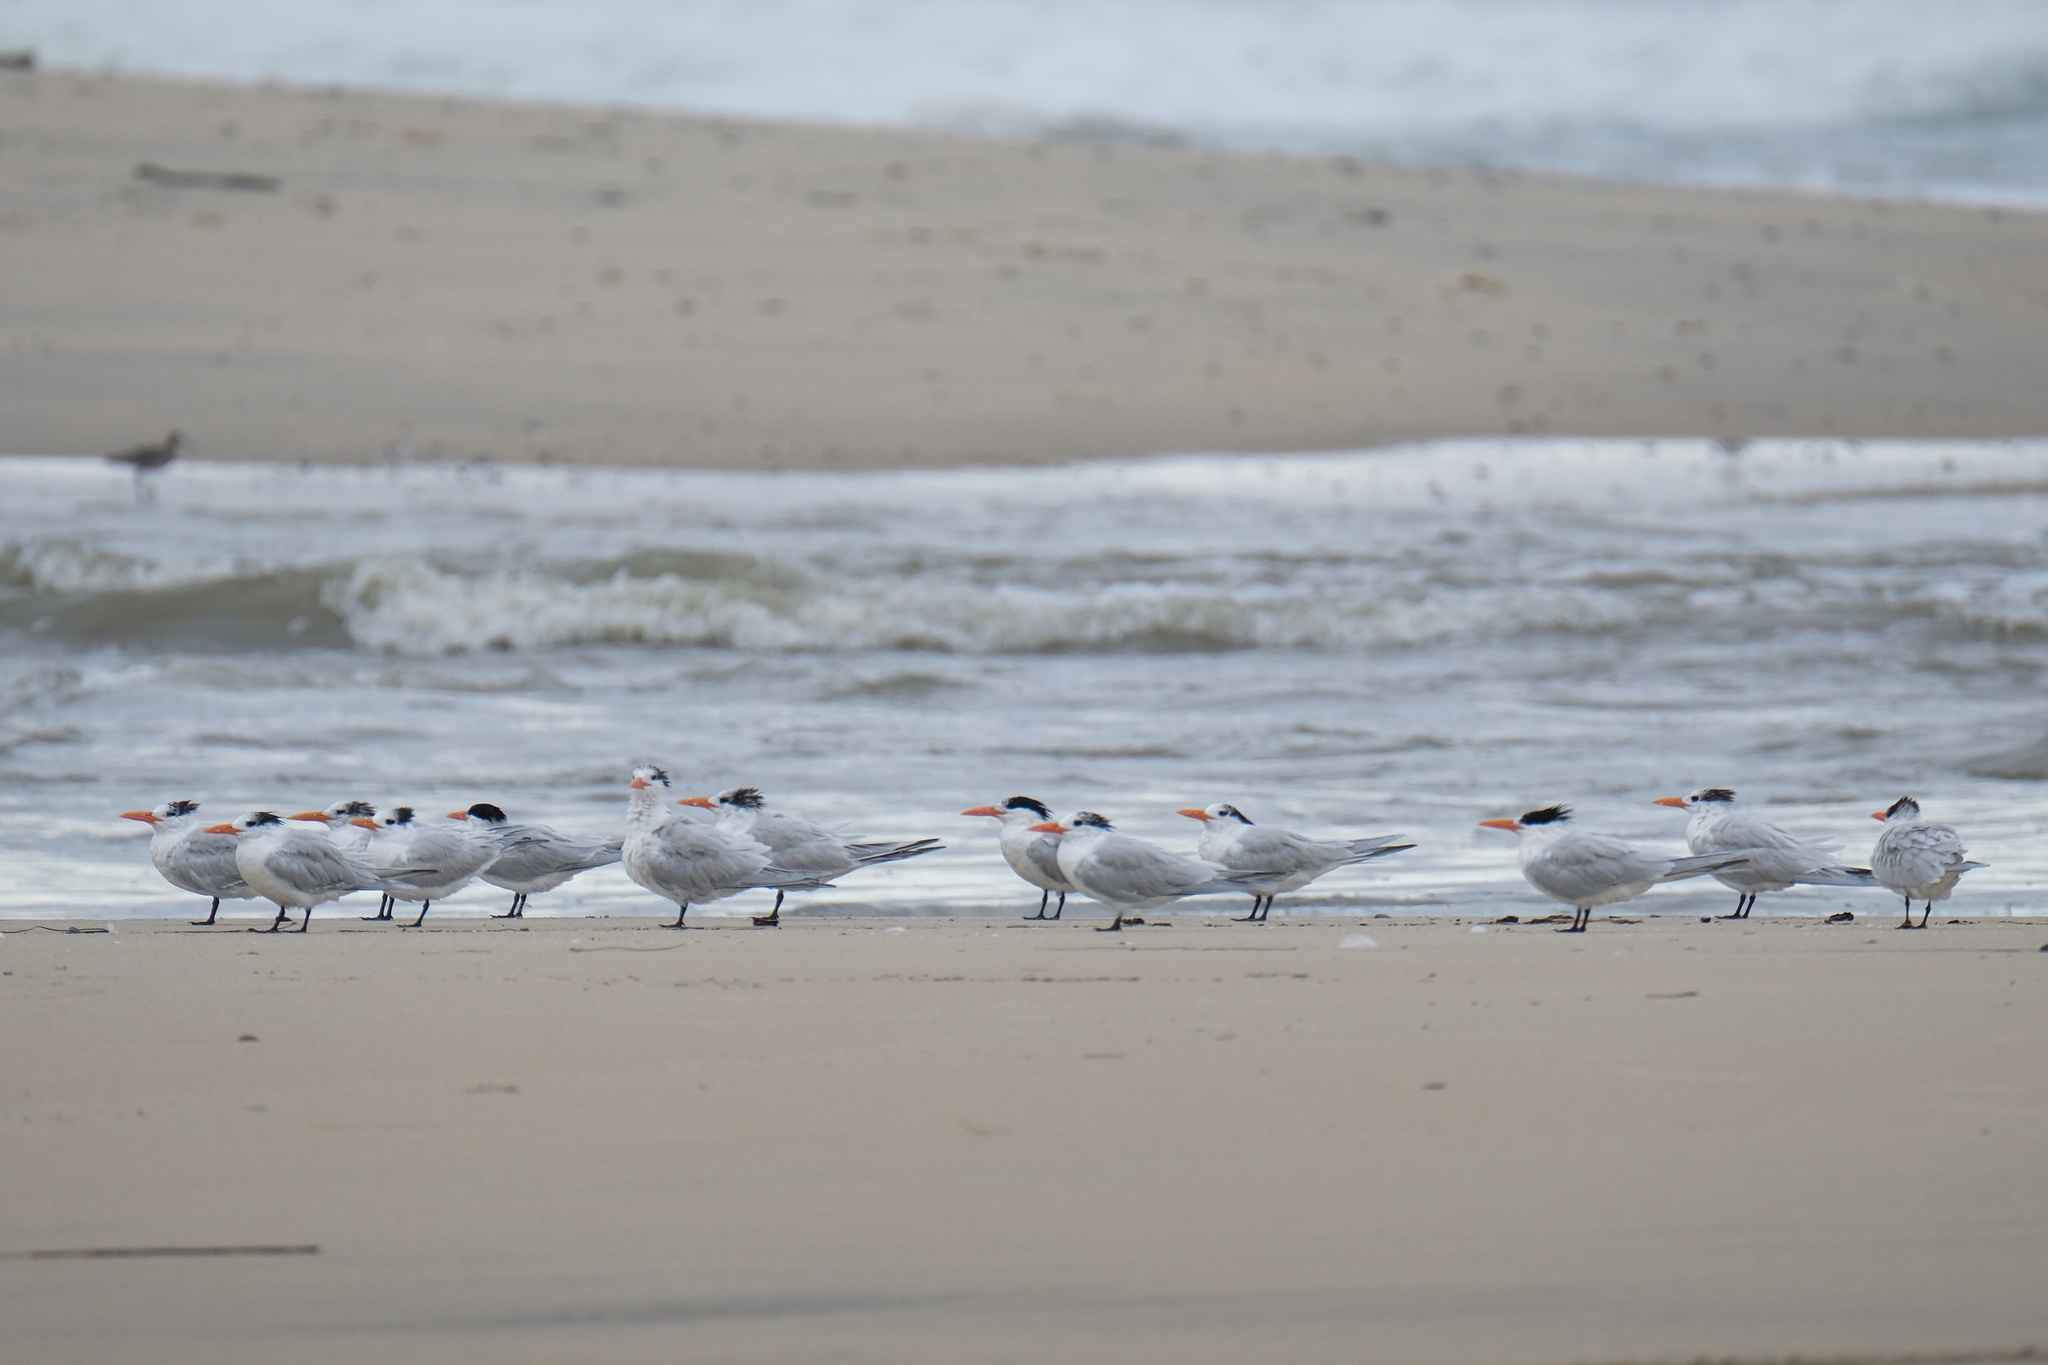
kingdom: Animalia
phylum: Chordata
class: Aves
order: Charadriiformes
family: Laridae
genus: Thalasseus
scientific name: Thalasseus maximus
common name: Royal tern
